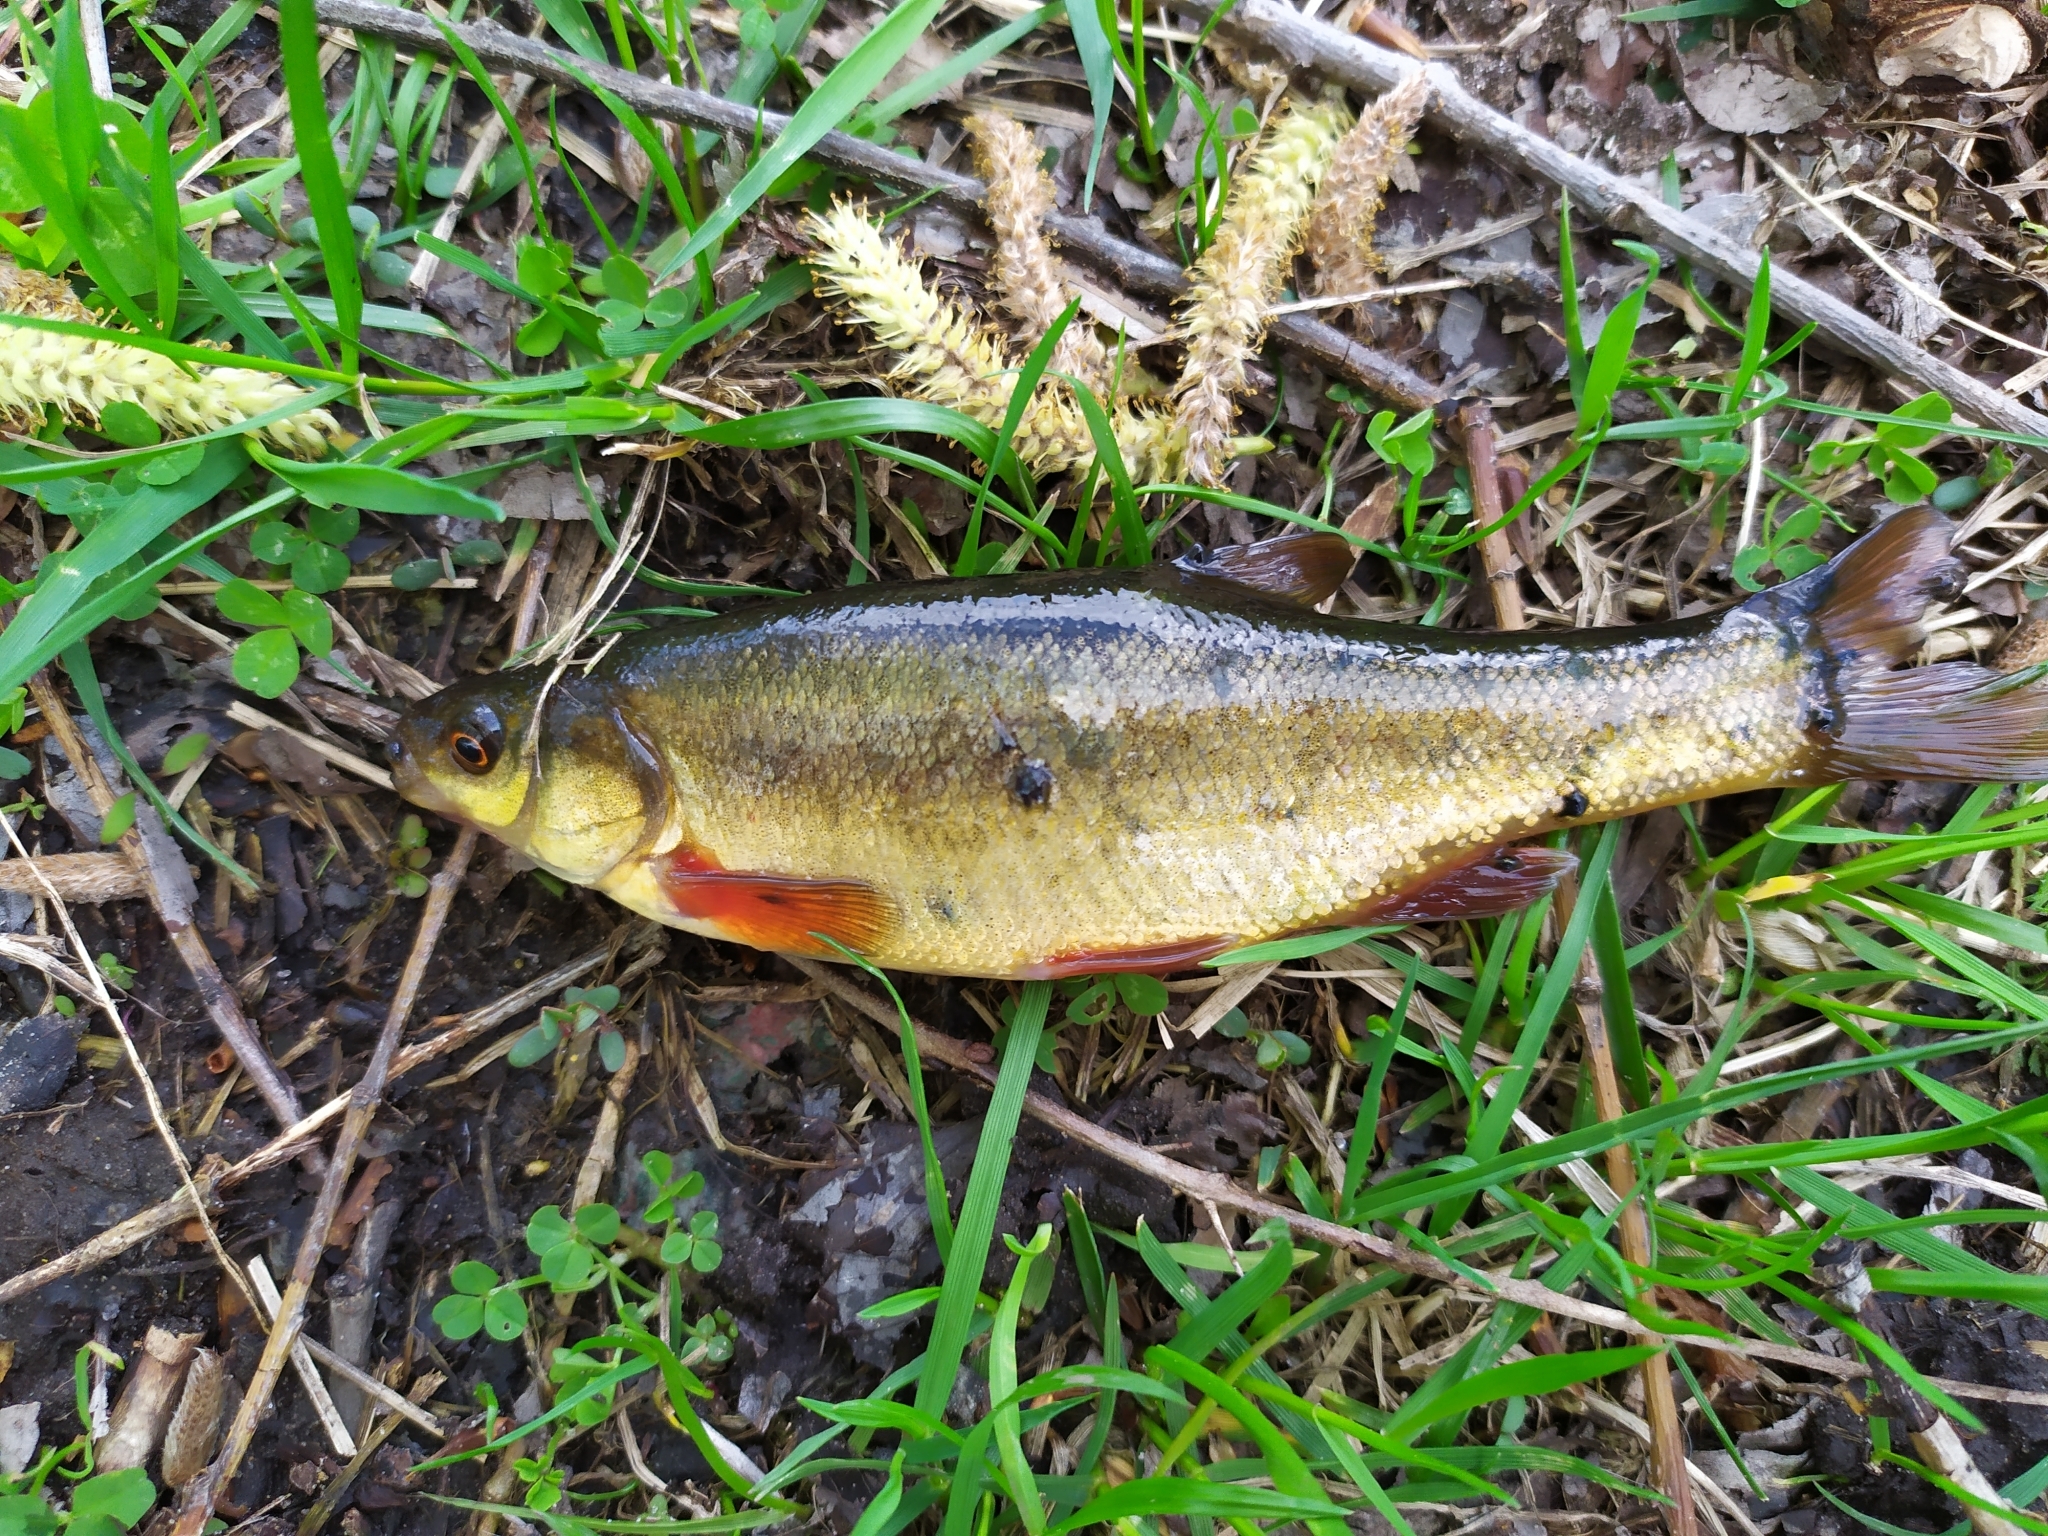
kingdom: Animalia
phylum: Chordata
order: Cypriniformes
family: Cyprinidae
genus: Rhynchocypris
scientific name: Rhynchocypris percnurus
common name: Swamp minnow
